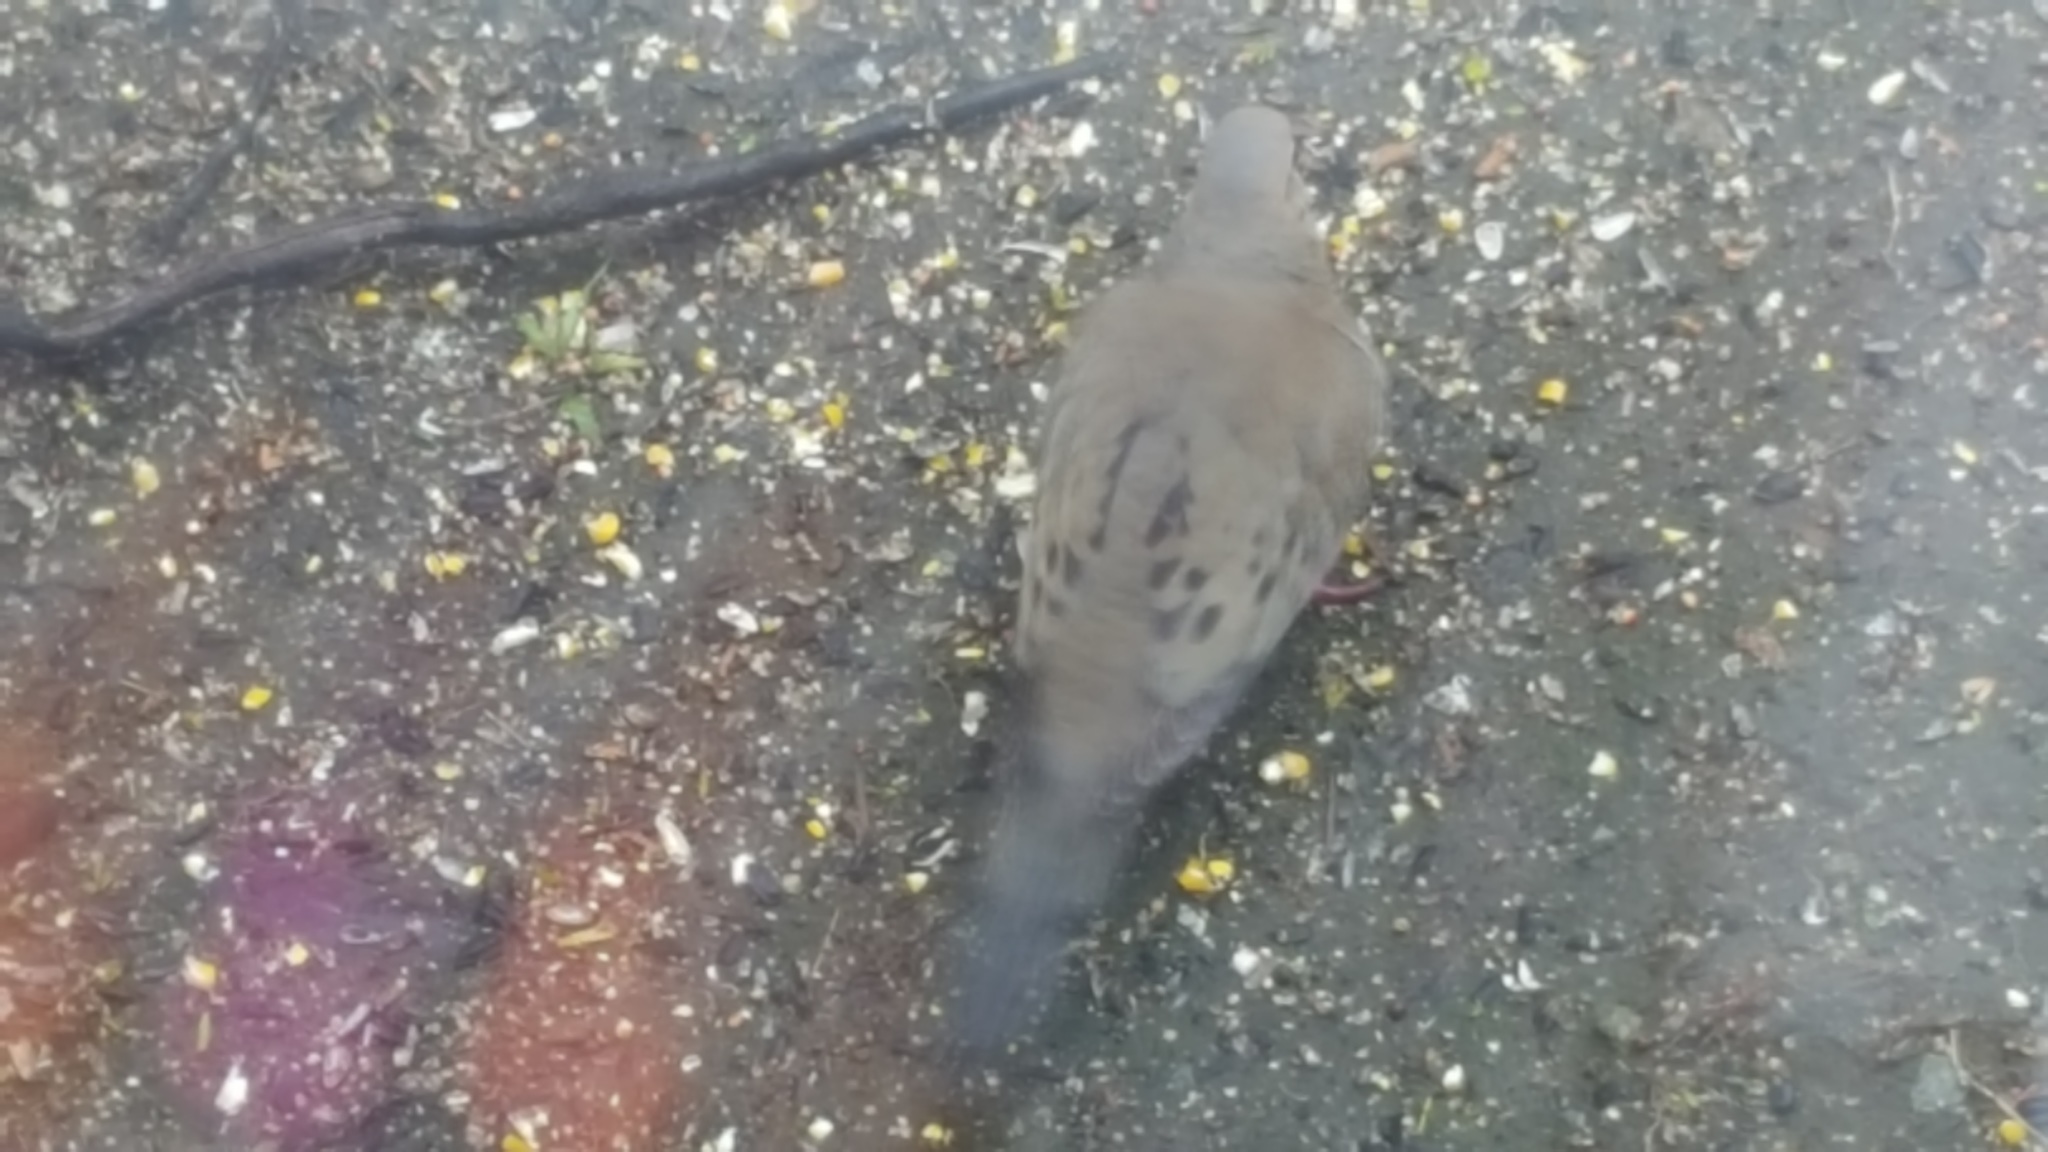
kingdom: Animalia
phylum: Chordata
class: Aves
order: Columbiformes
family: Columbidae
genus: Zenaida
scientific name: Zenaida macroura
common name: Mourning dove
